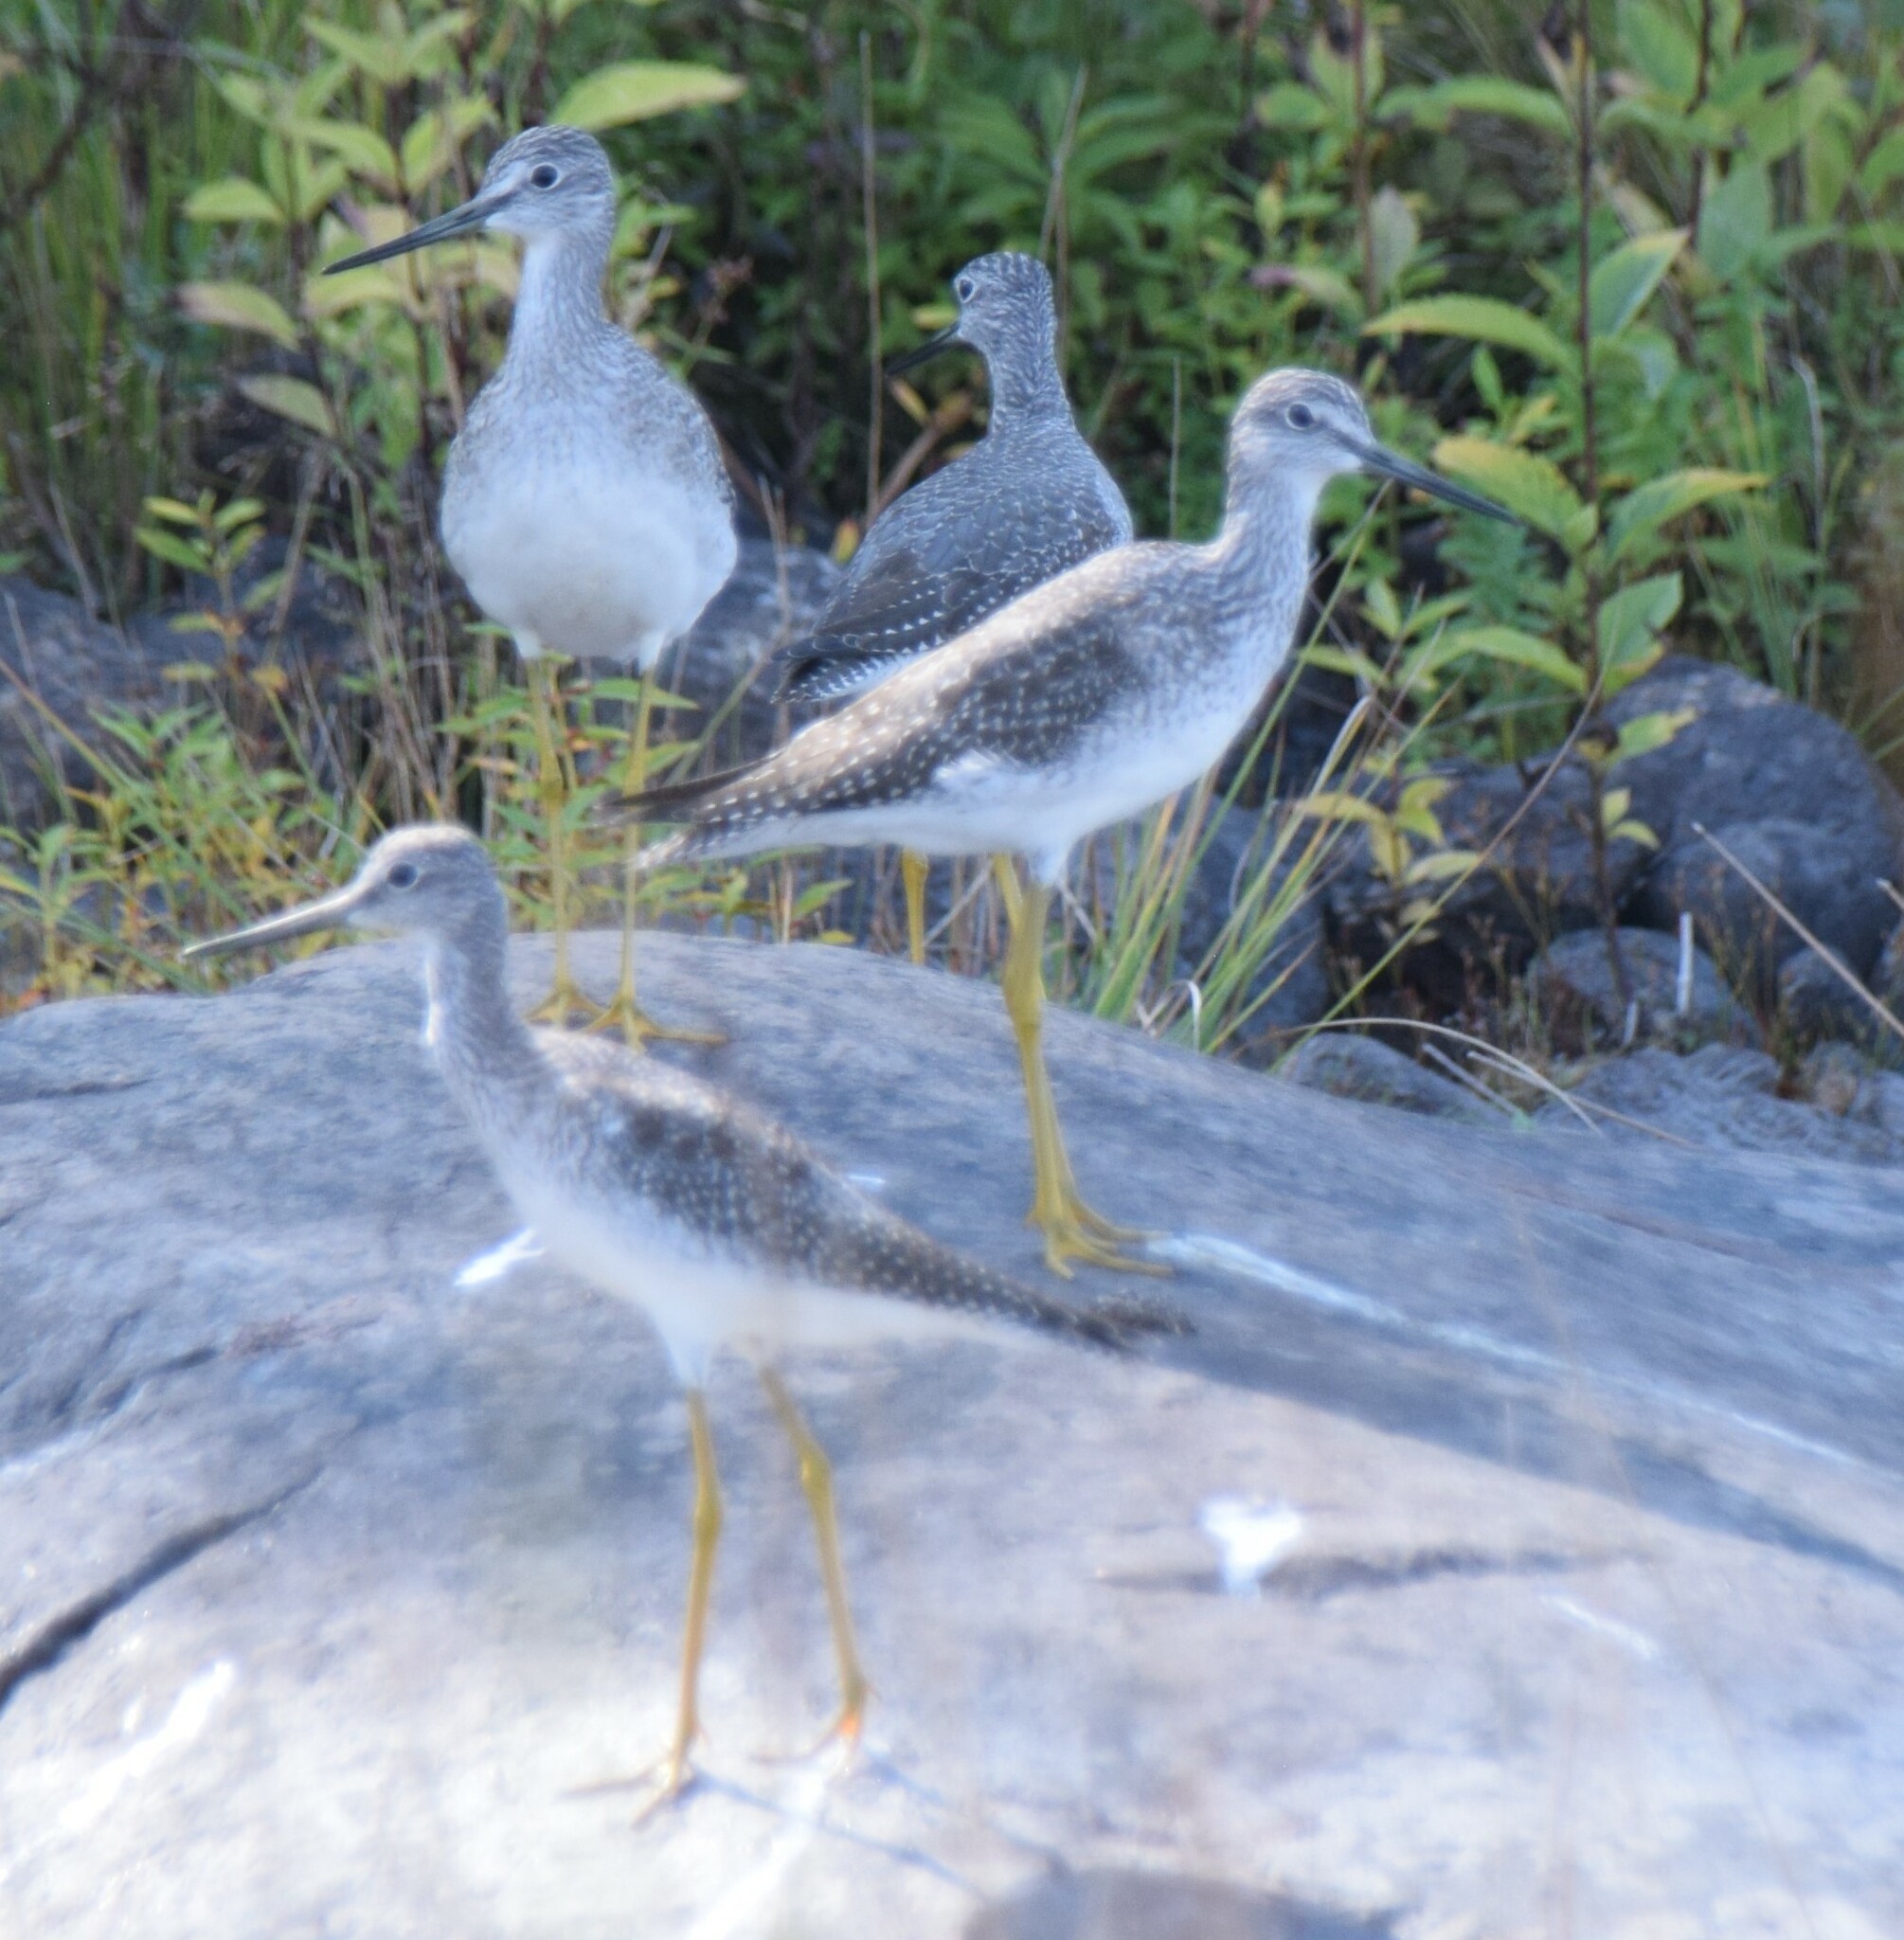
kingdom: Animalia
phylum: Chordata
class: Aves
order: Charadriiformes
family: Scolopacidae
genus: Tringa
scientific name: Tringa melanoleuca
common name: Greater yellowlegs
